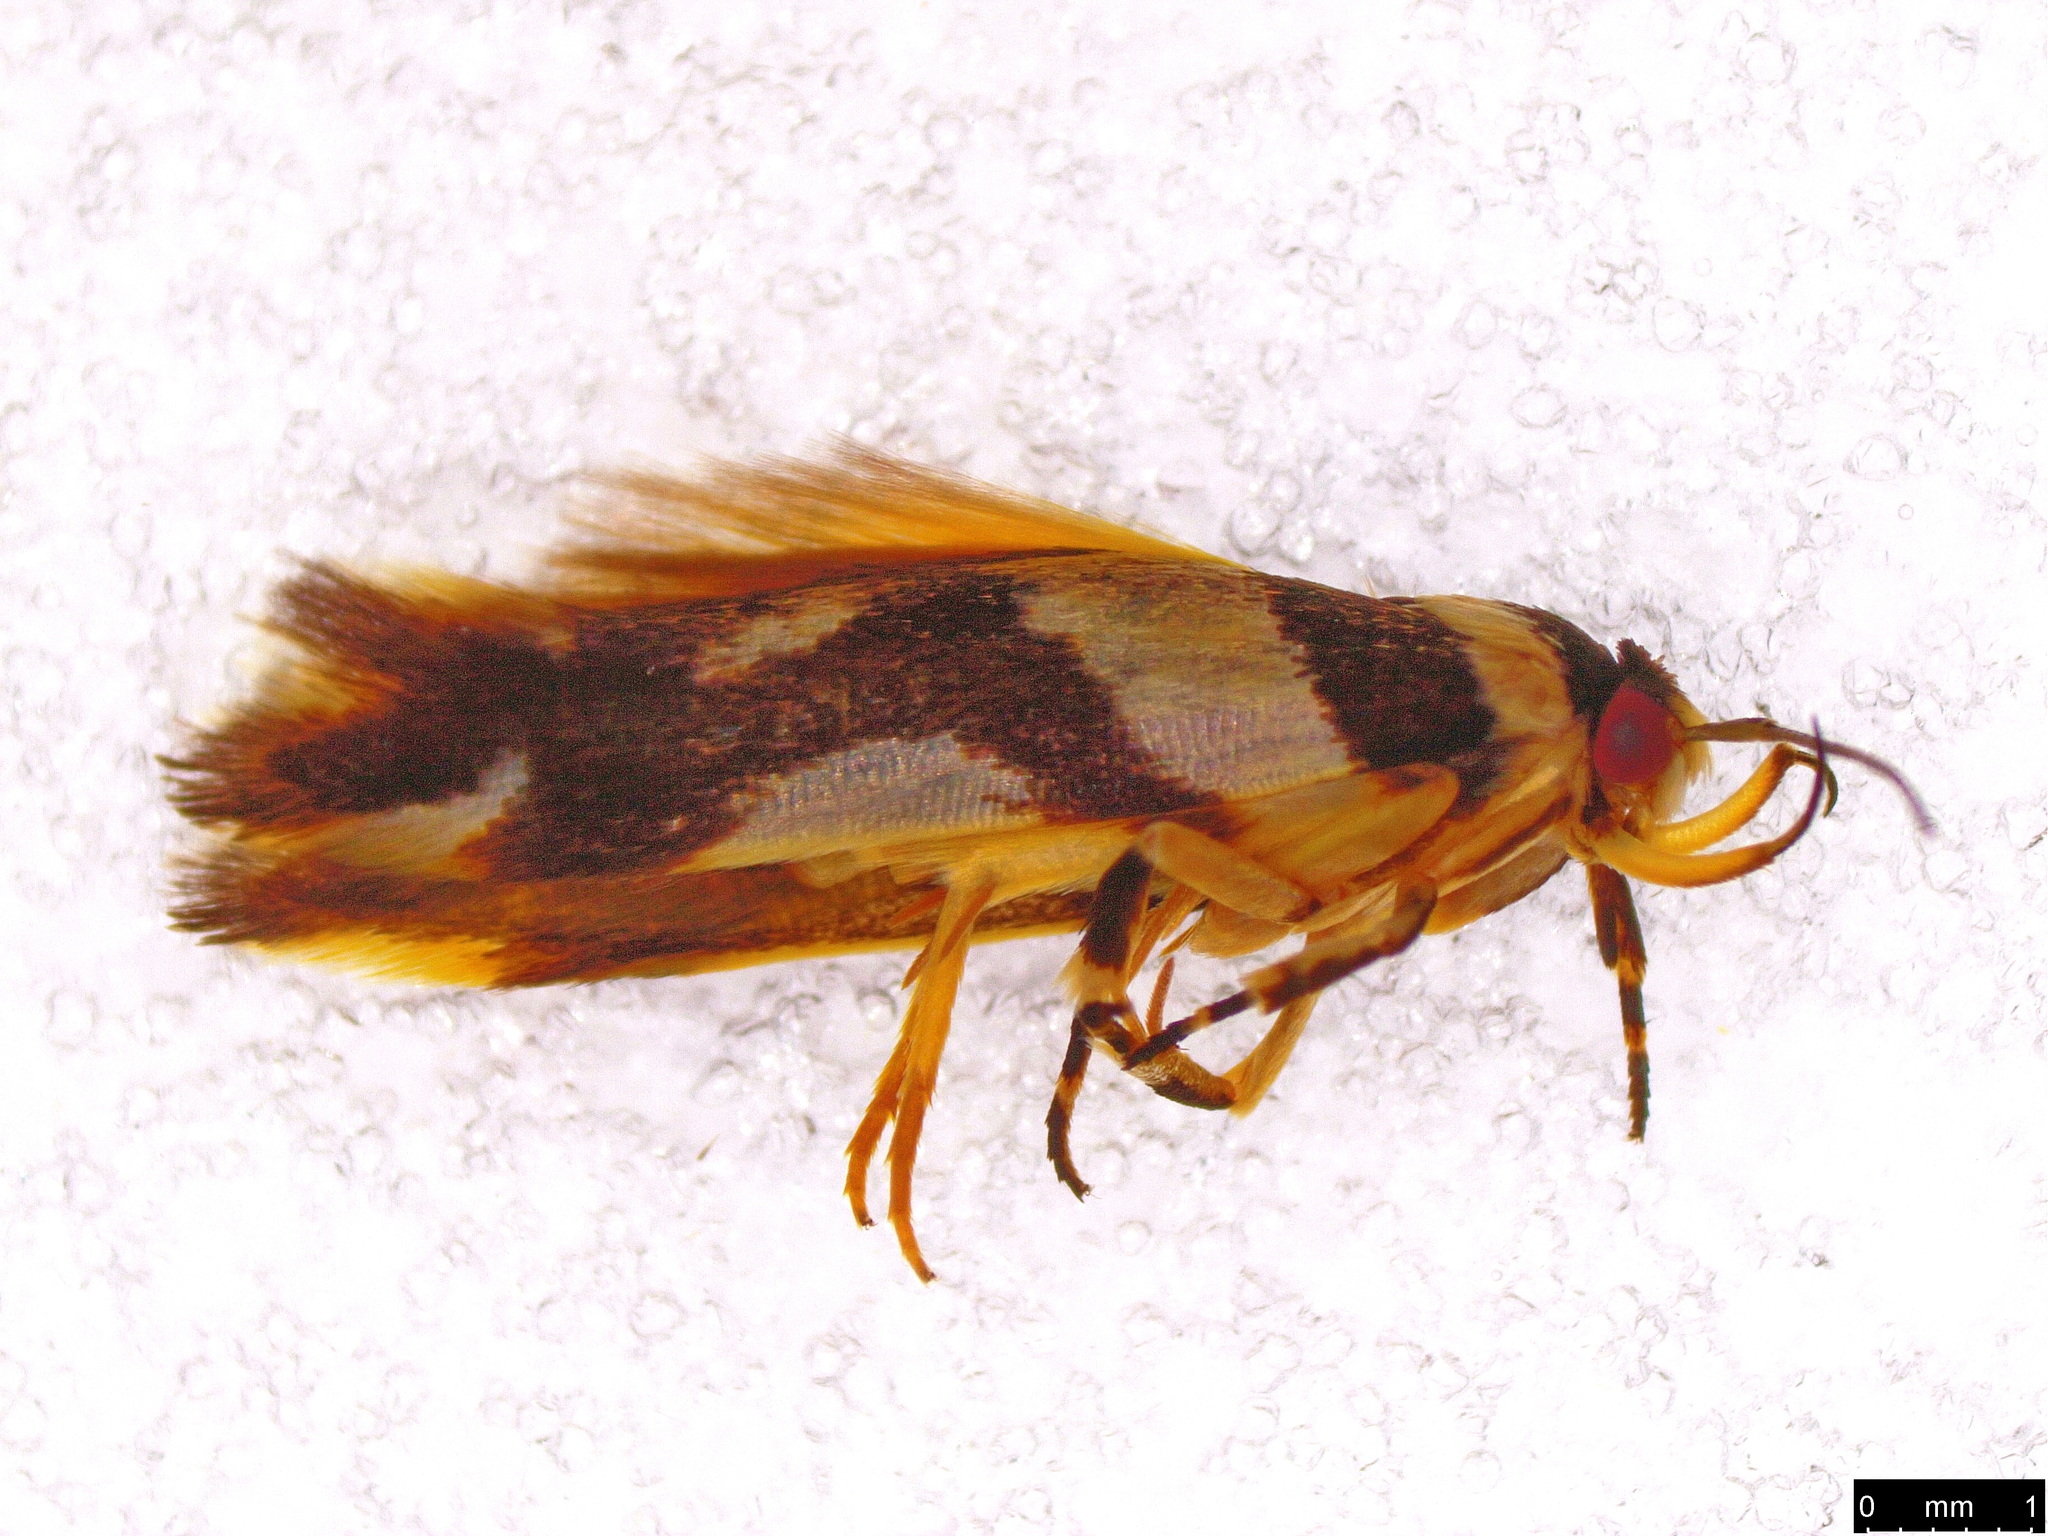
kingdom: Animalia
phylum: Arthropoda
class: Insecta
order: Lepidoptera
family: Cosmopterigidae
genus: Macrobathra
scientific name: Macrobathra desmotoma
